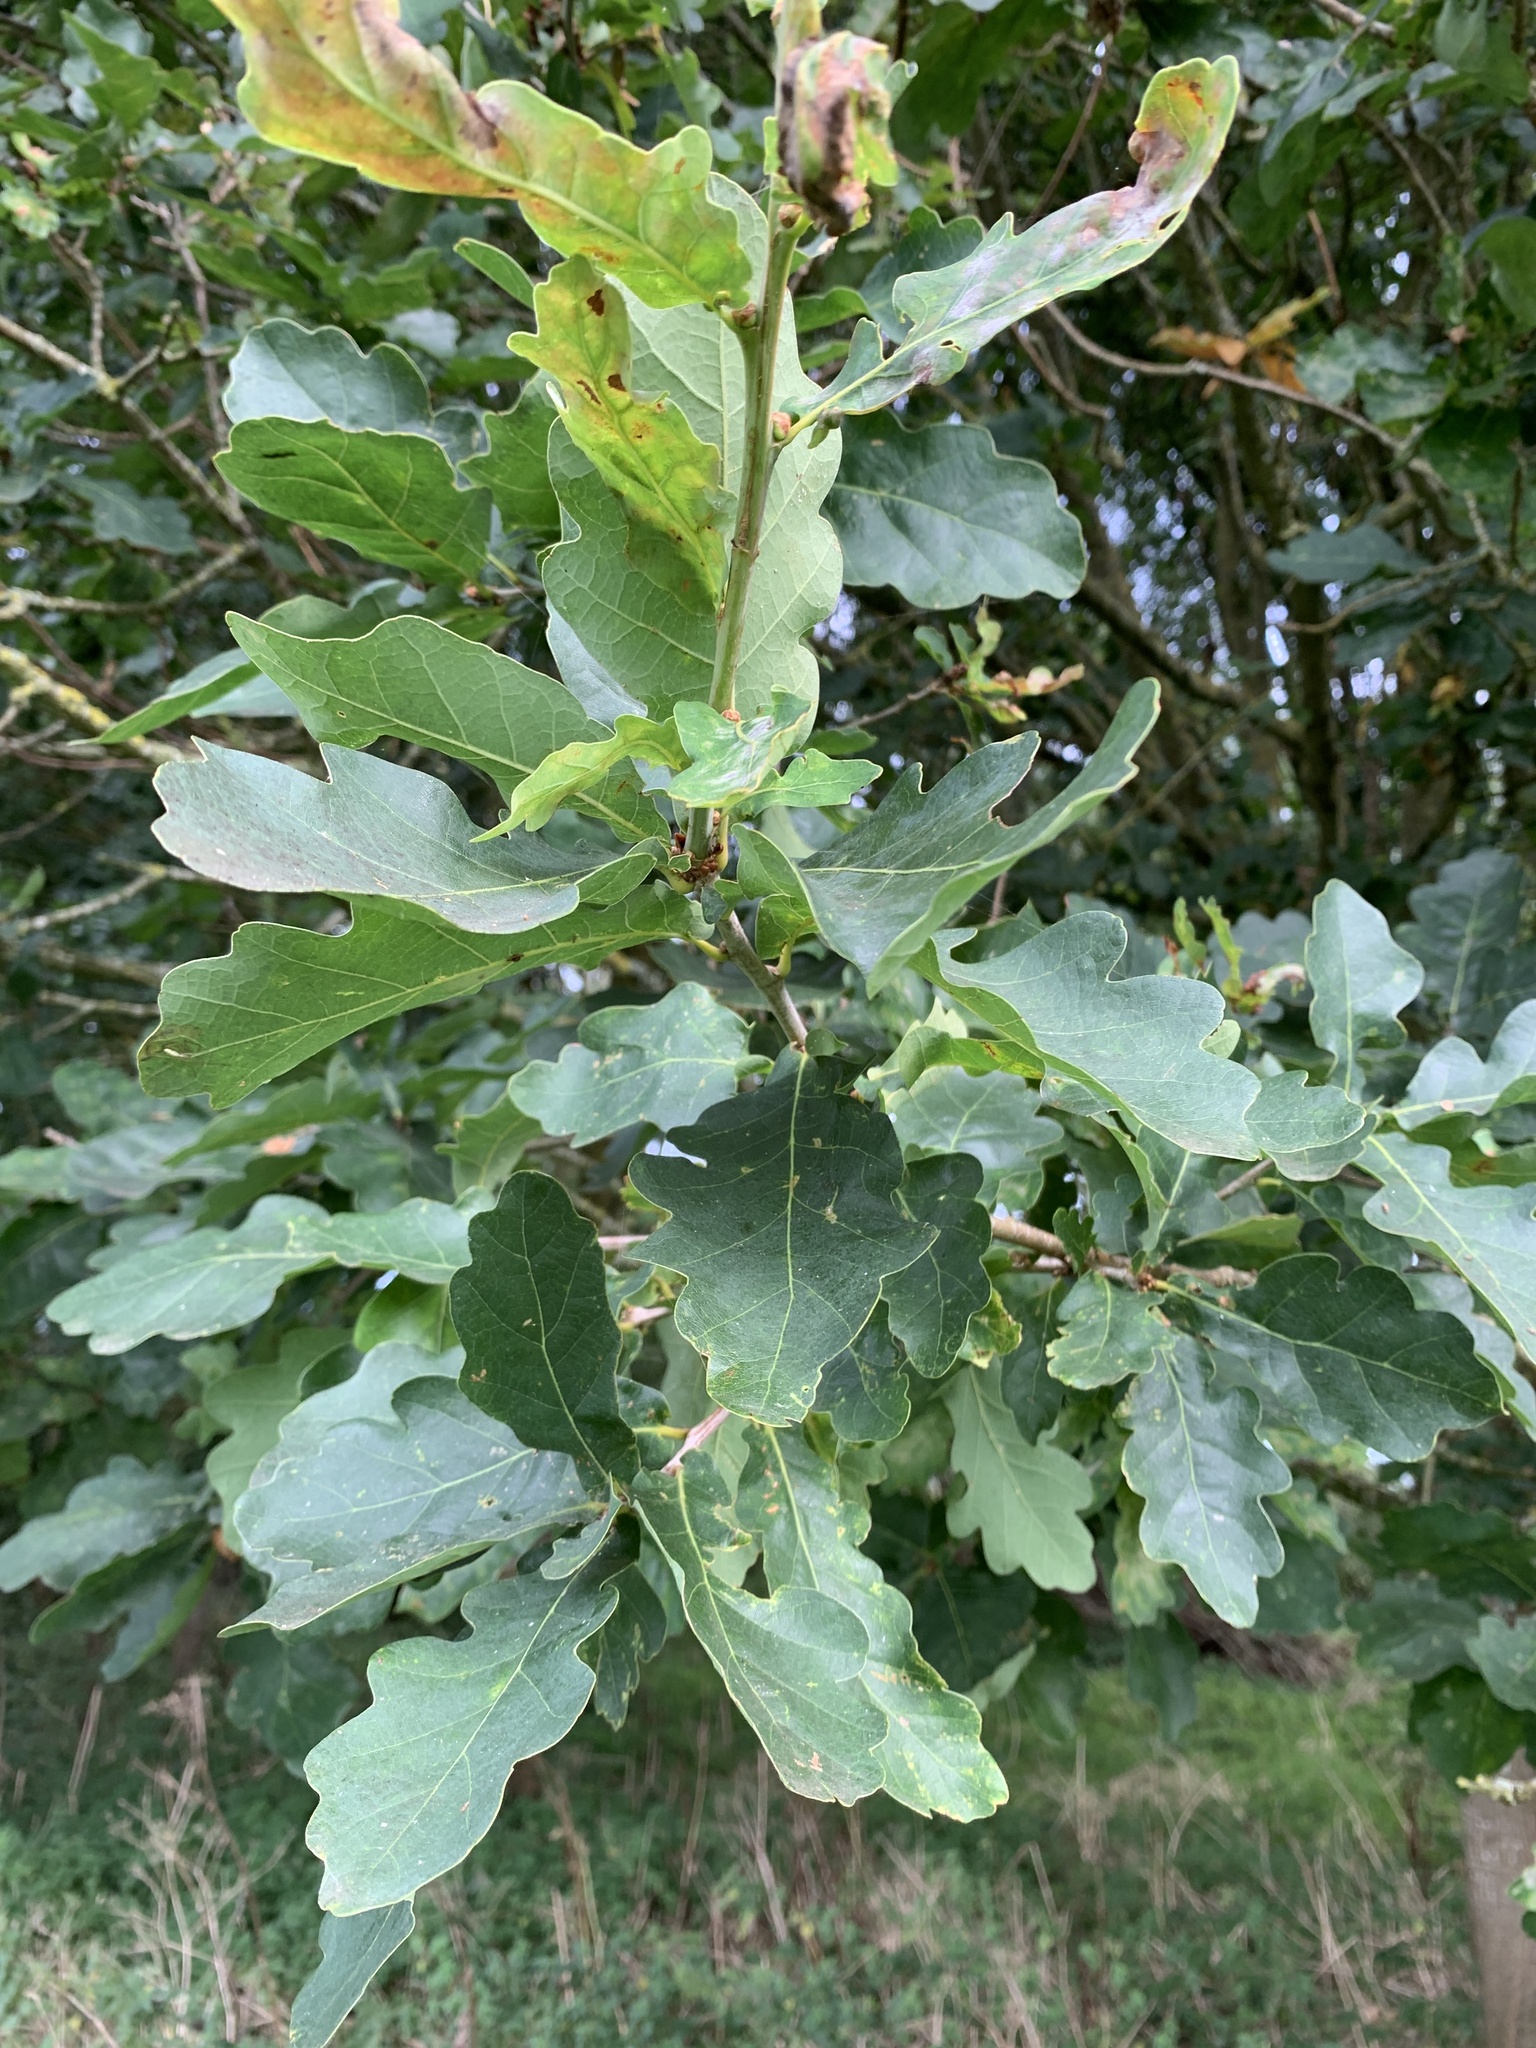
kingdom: Plantae
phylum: Tracheophyta
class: Magnoliopsida
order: Fagales
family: Fagaceae
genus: Quercus
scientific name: Quercus robur
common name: Pedunculate oak
